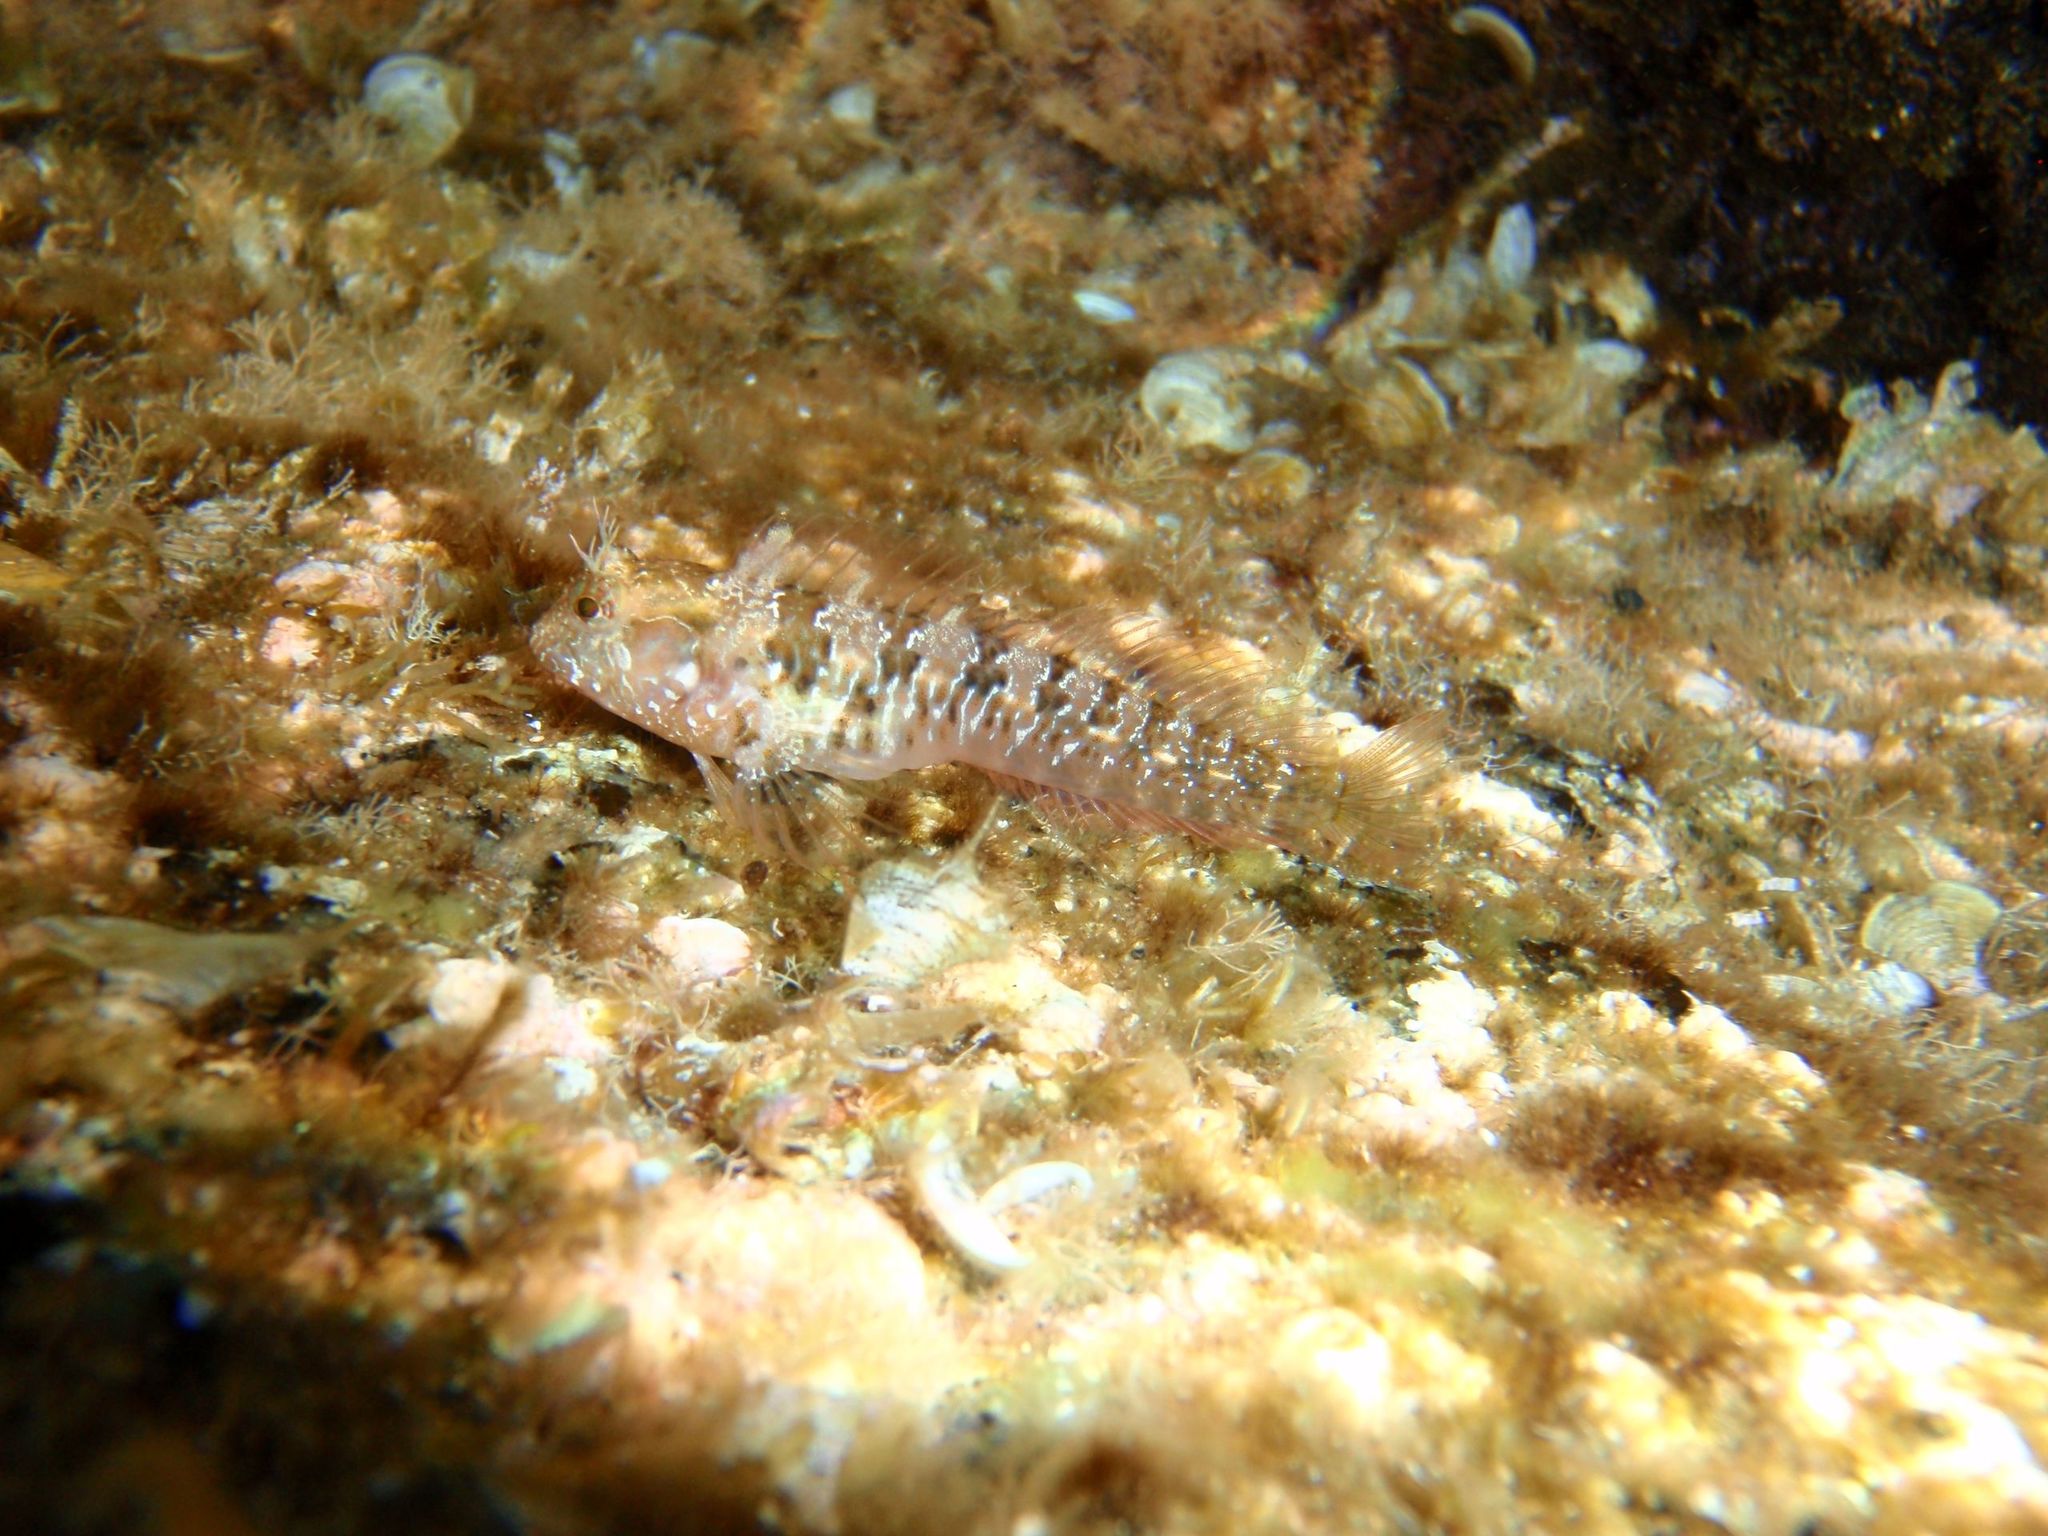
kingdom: Animalia
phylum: Chordata
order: Perciformes
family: Blenniidae
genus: Parablennius
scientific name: Parablennius incognitus
